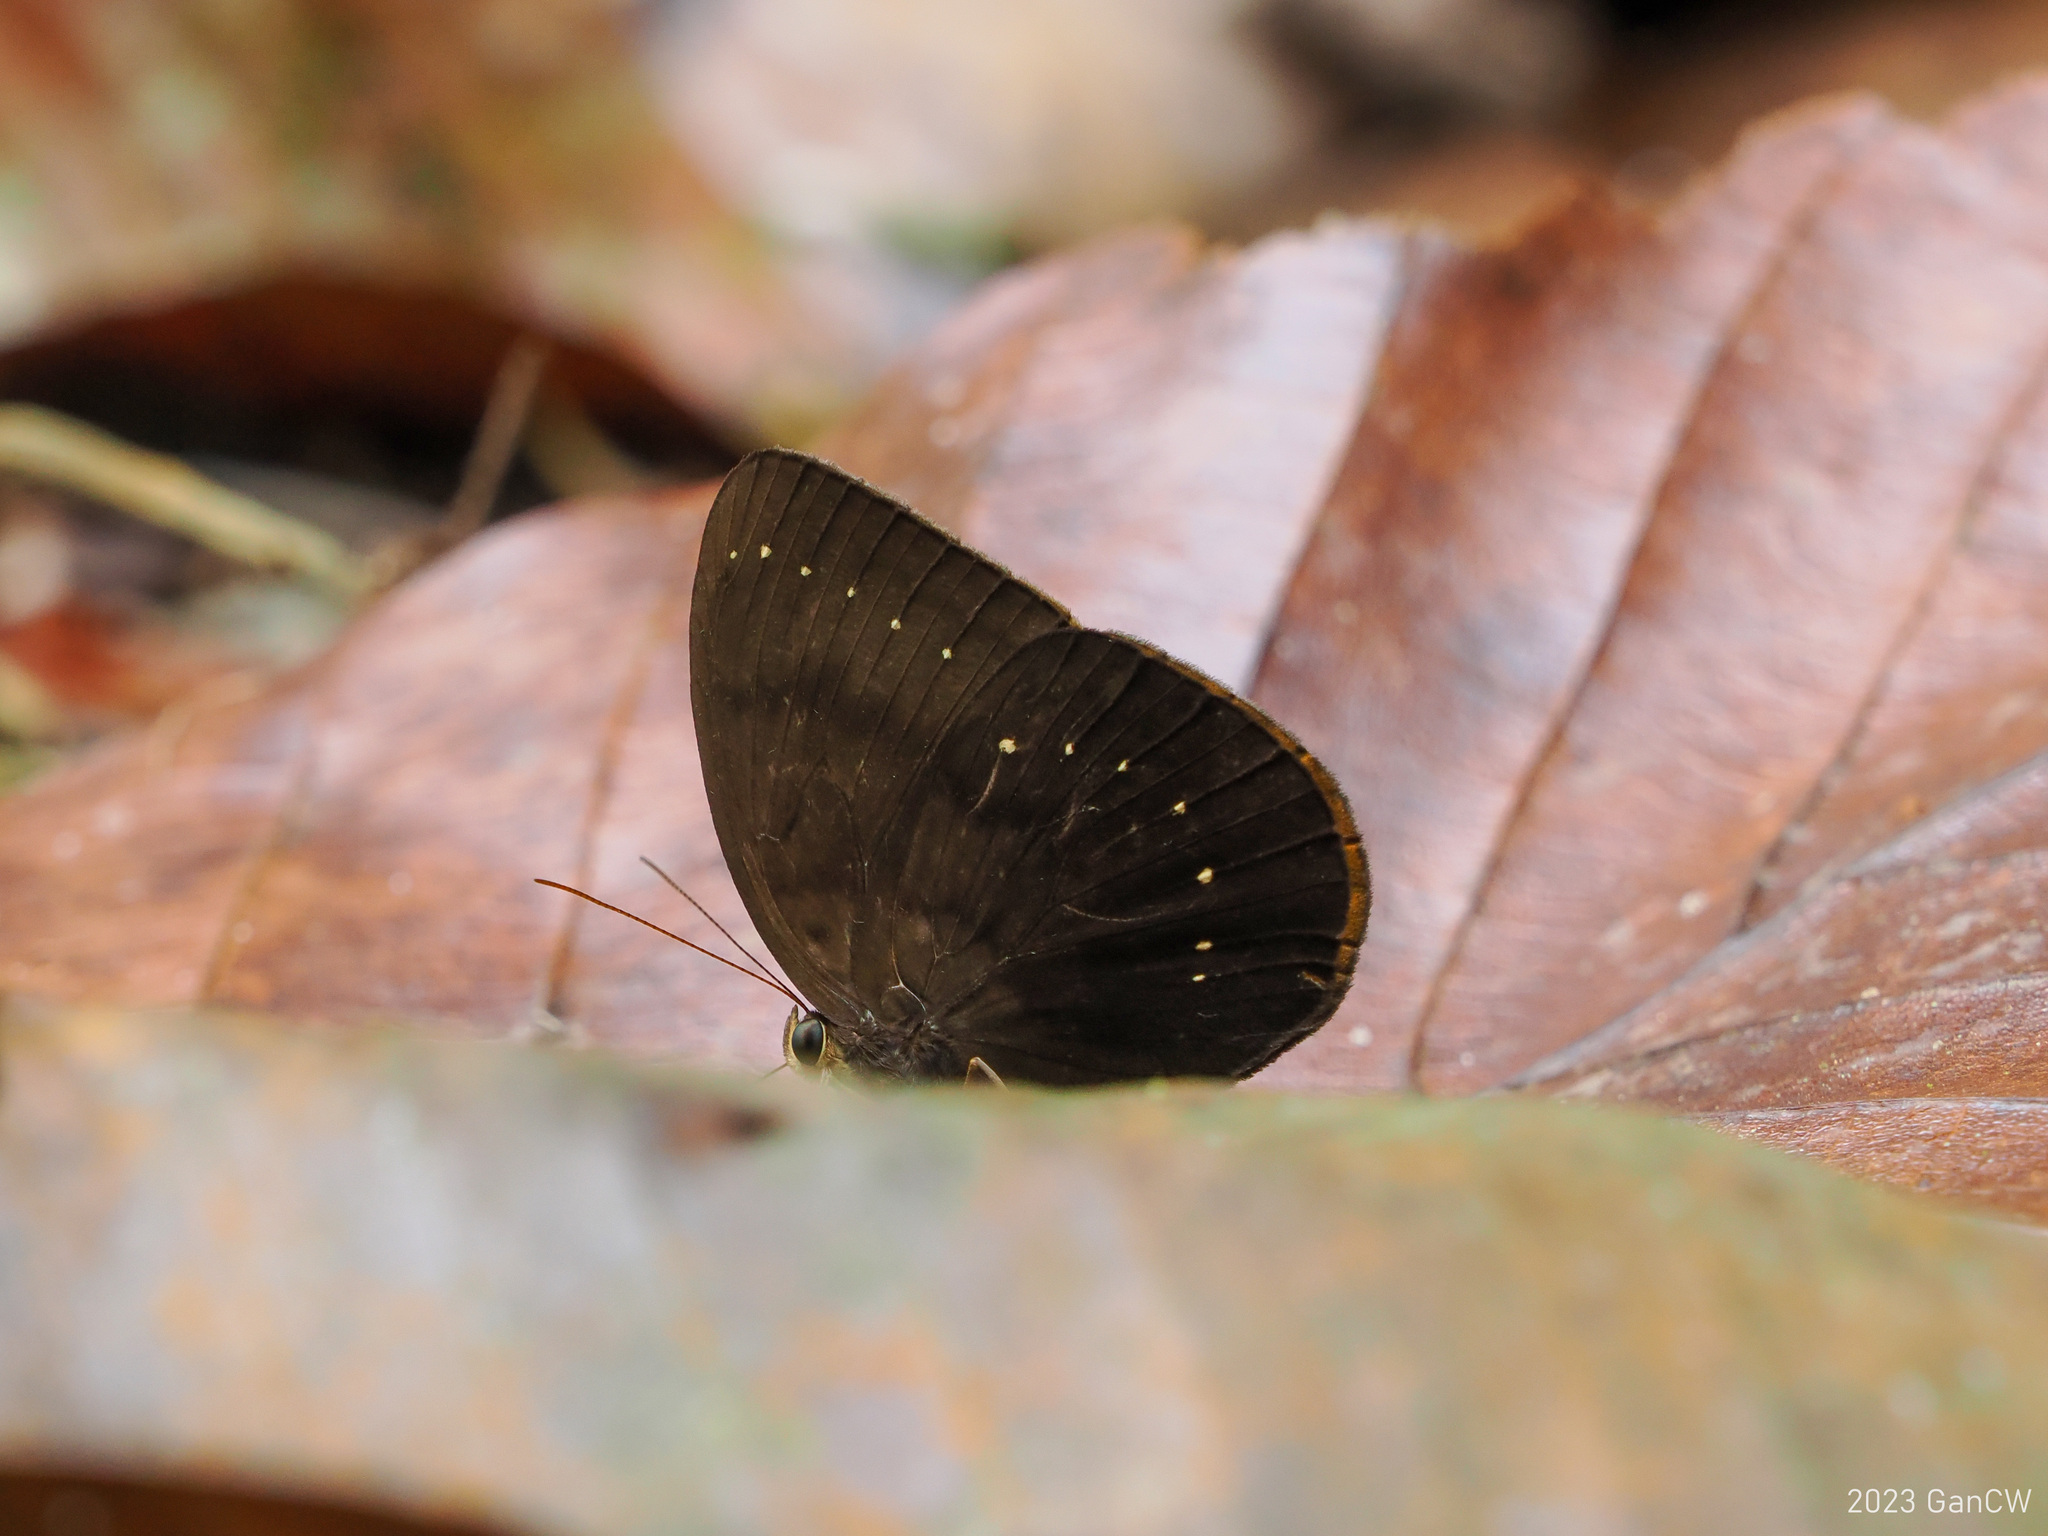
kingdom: Animalia
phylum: Arthropoda
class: Insecta
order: Lepidoptera
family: Nymphalidae
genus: Faunis
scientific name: Faunis kirata
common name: Broad striped faun
